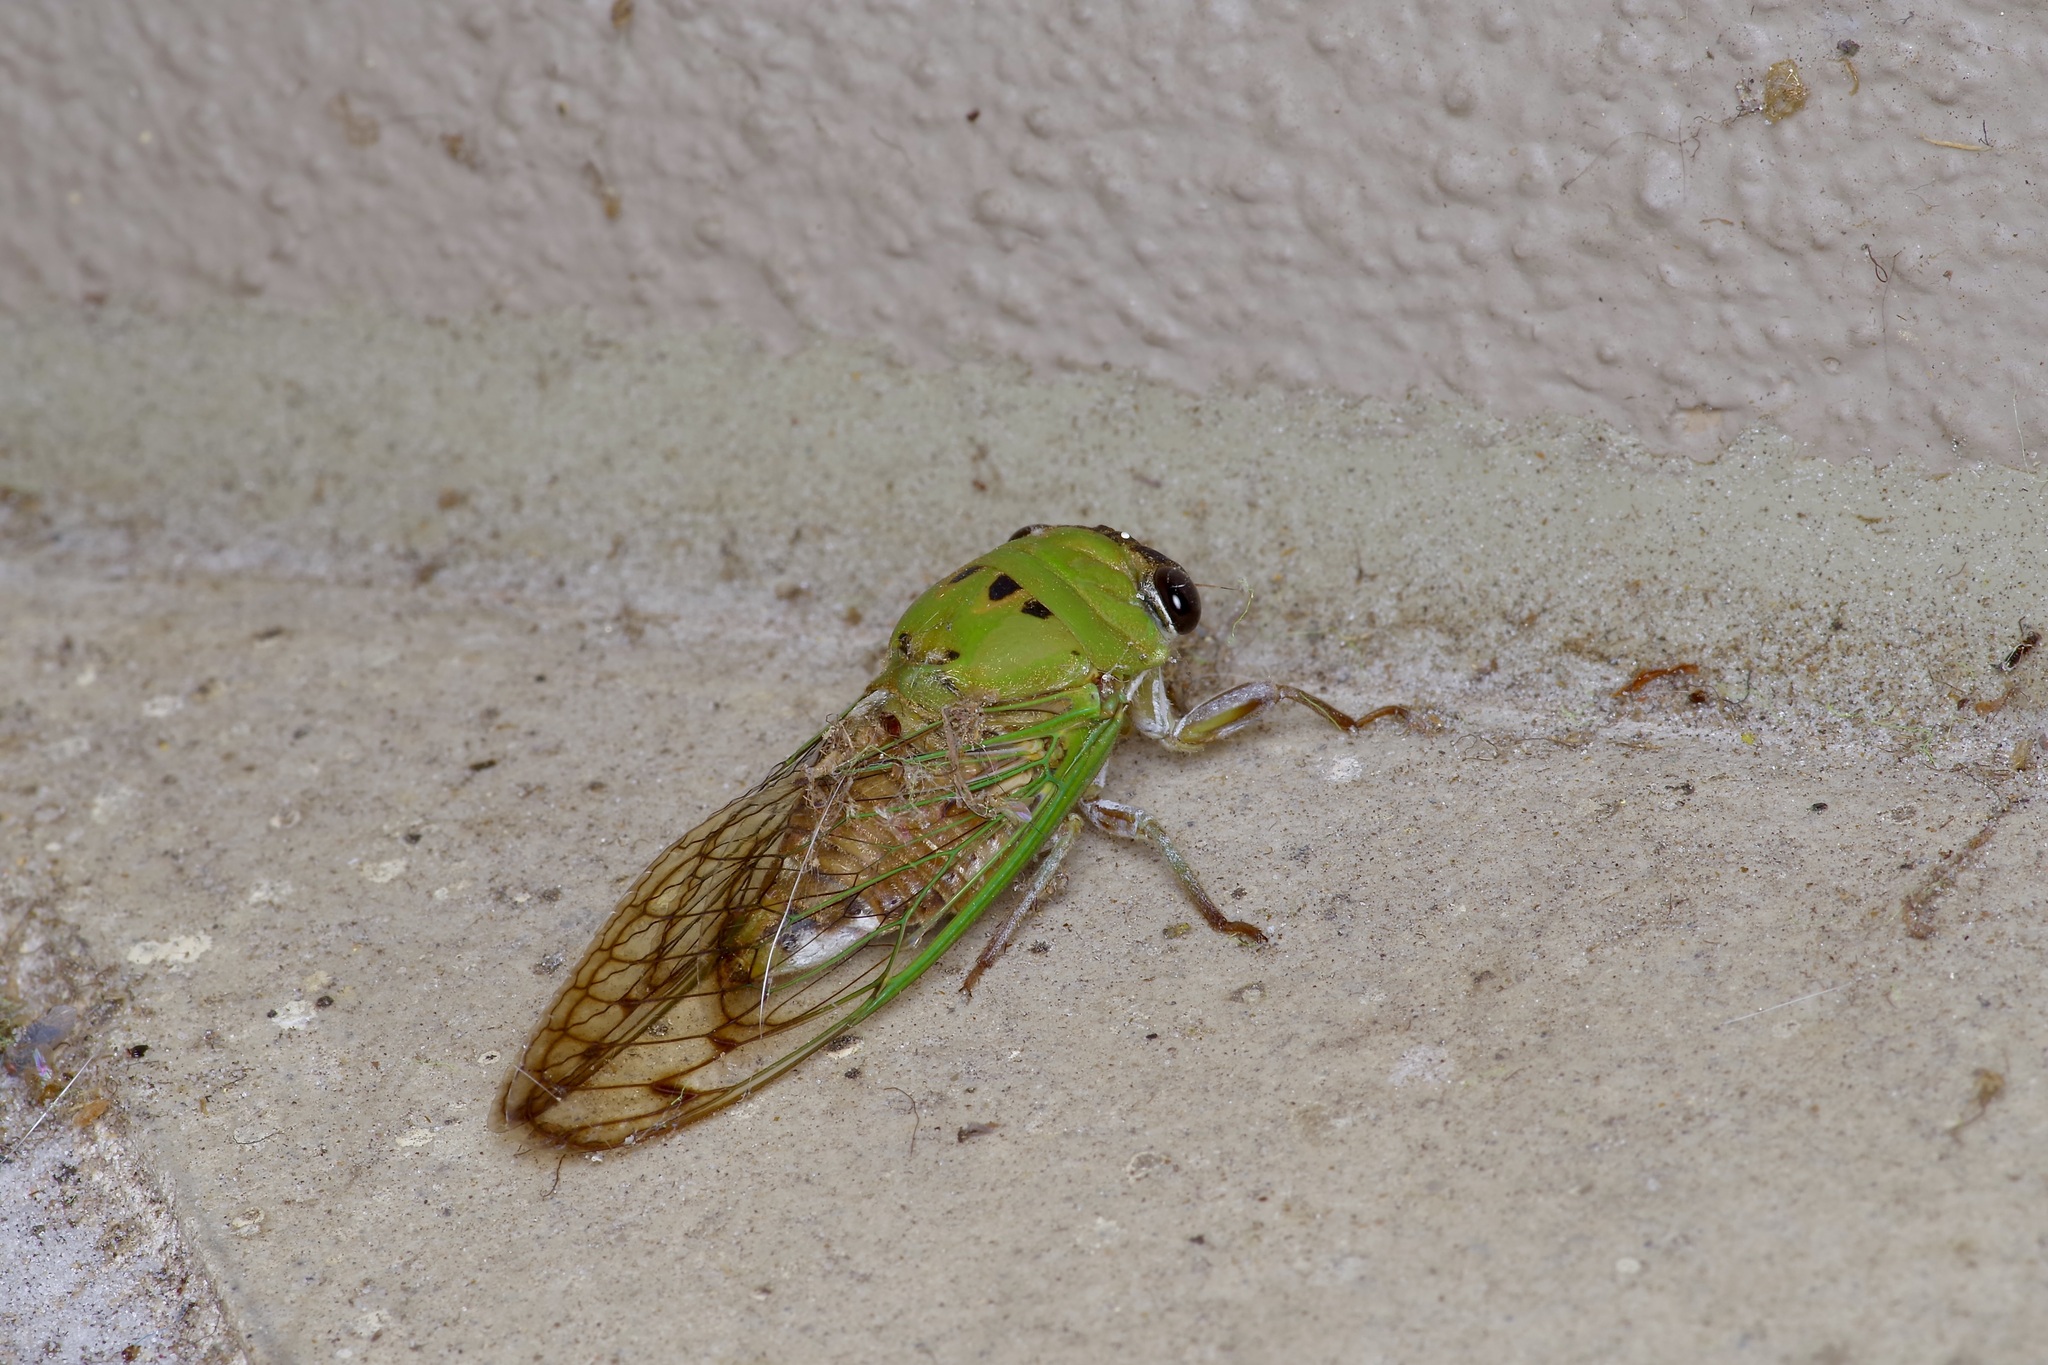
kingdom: Animalia
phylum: Arthropoda
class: Insecta
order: Hemiptera
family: Cicadidae
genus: Neotibicen
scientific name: Neotibicen superbus
